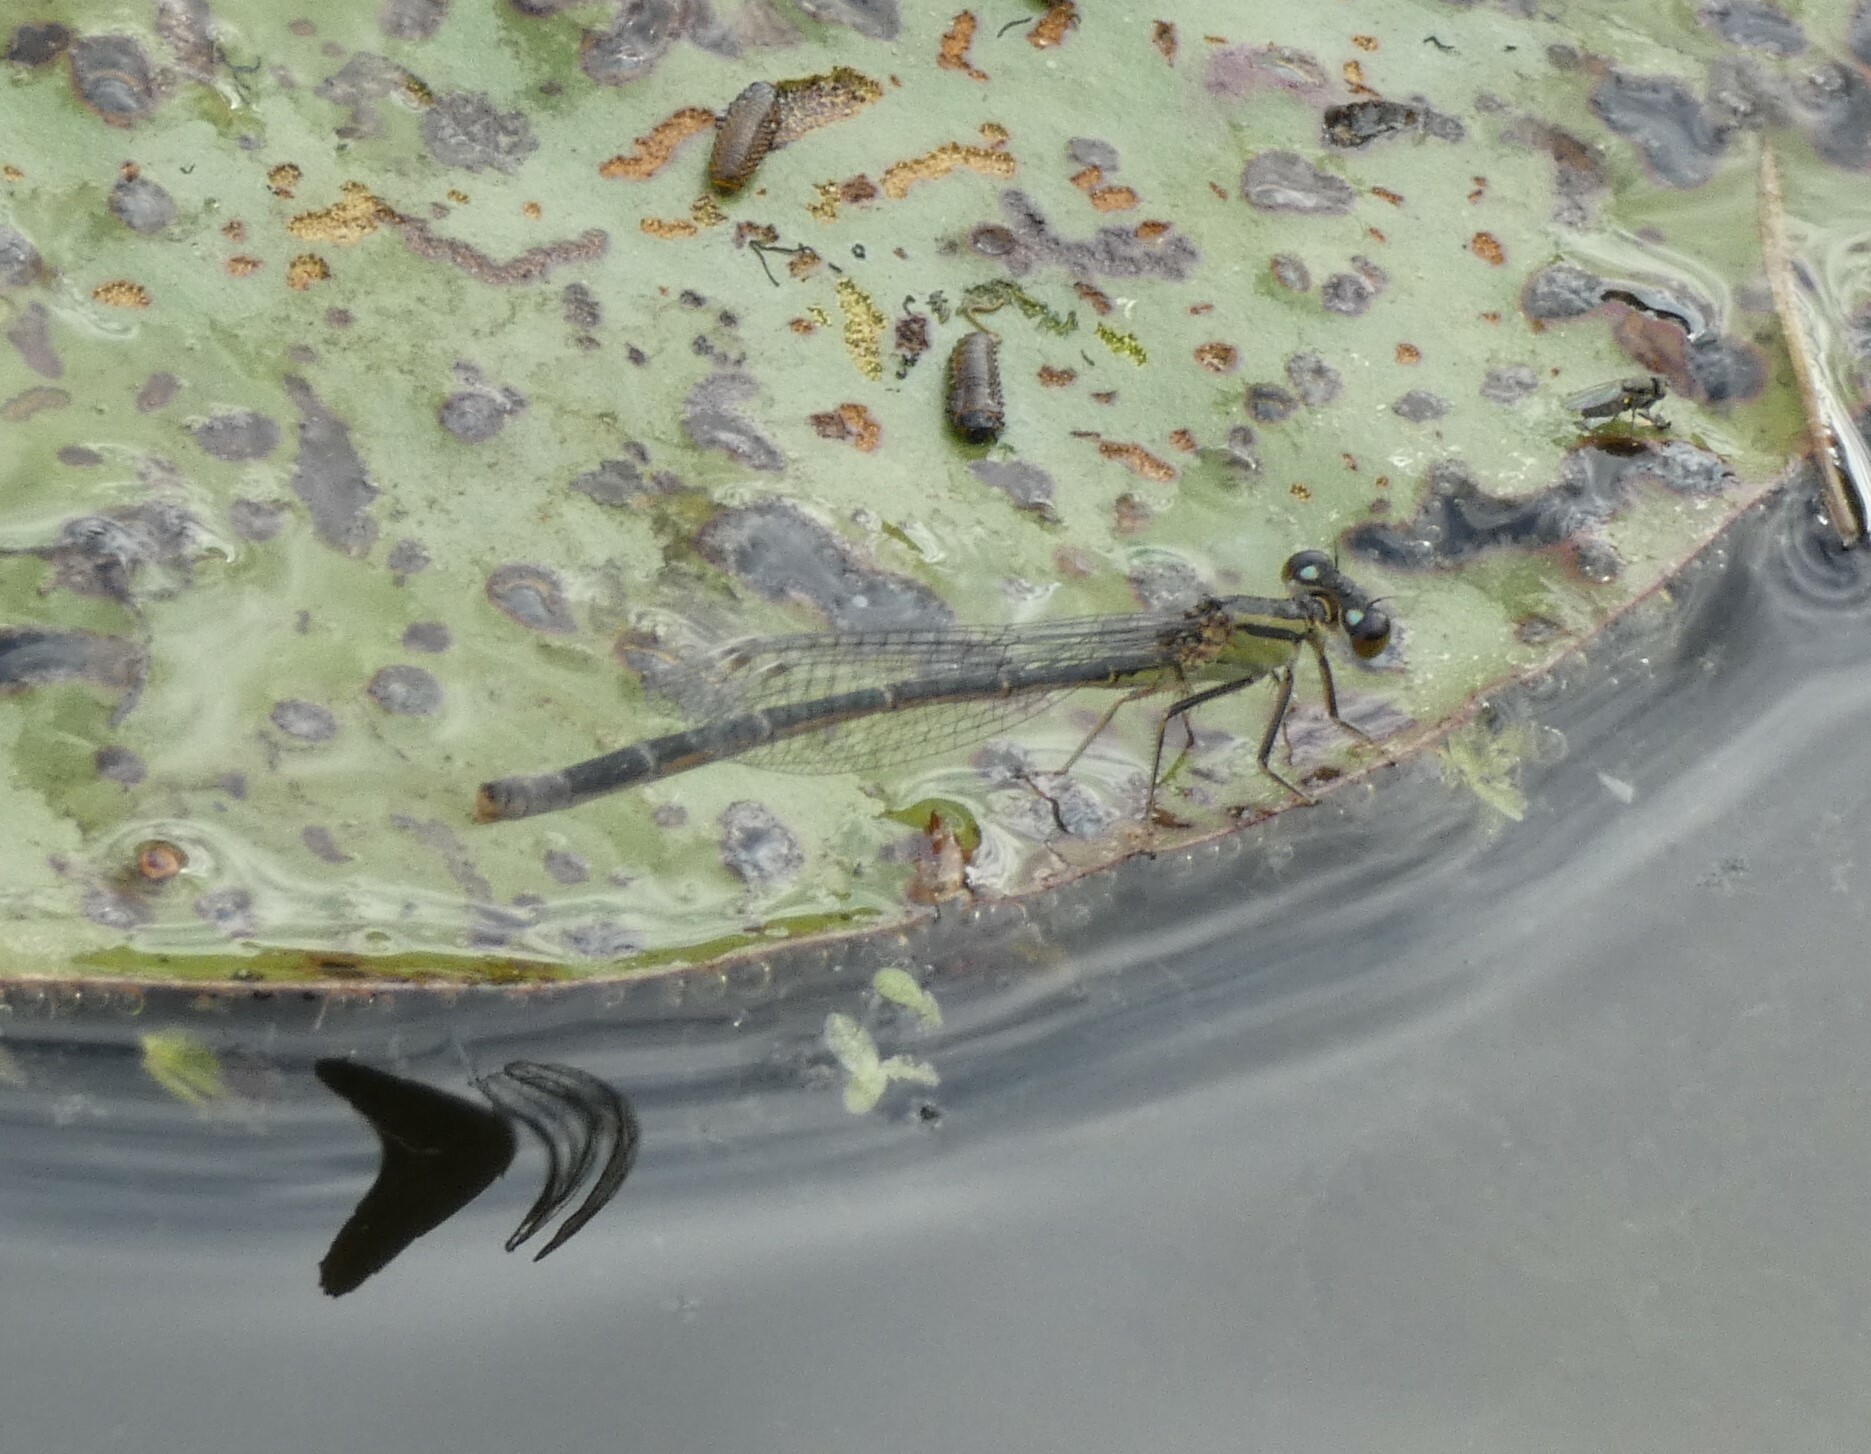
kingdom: Animalia
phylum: Arthropoda
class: Insecta
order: Odonata
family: Coenagrionidae
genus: Ischnura
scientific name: Ischnura elegans
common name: Blue-tailed damselfly
